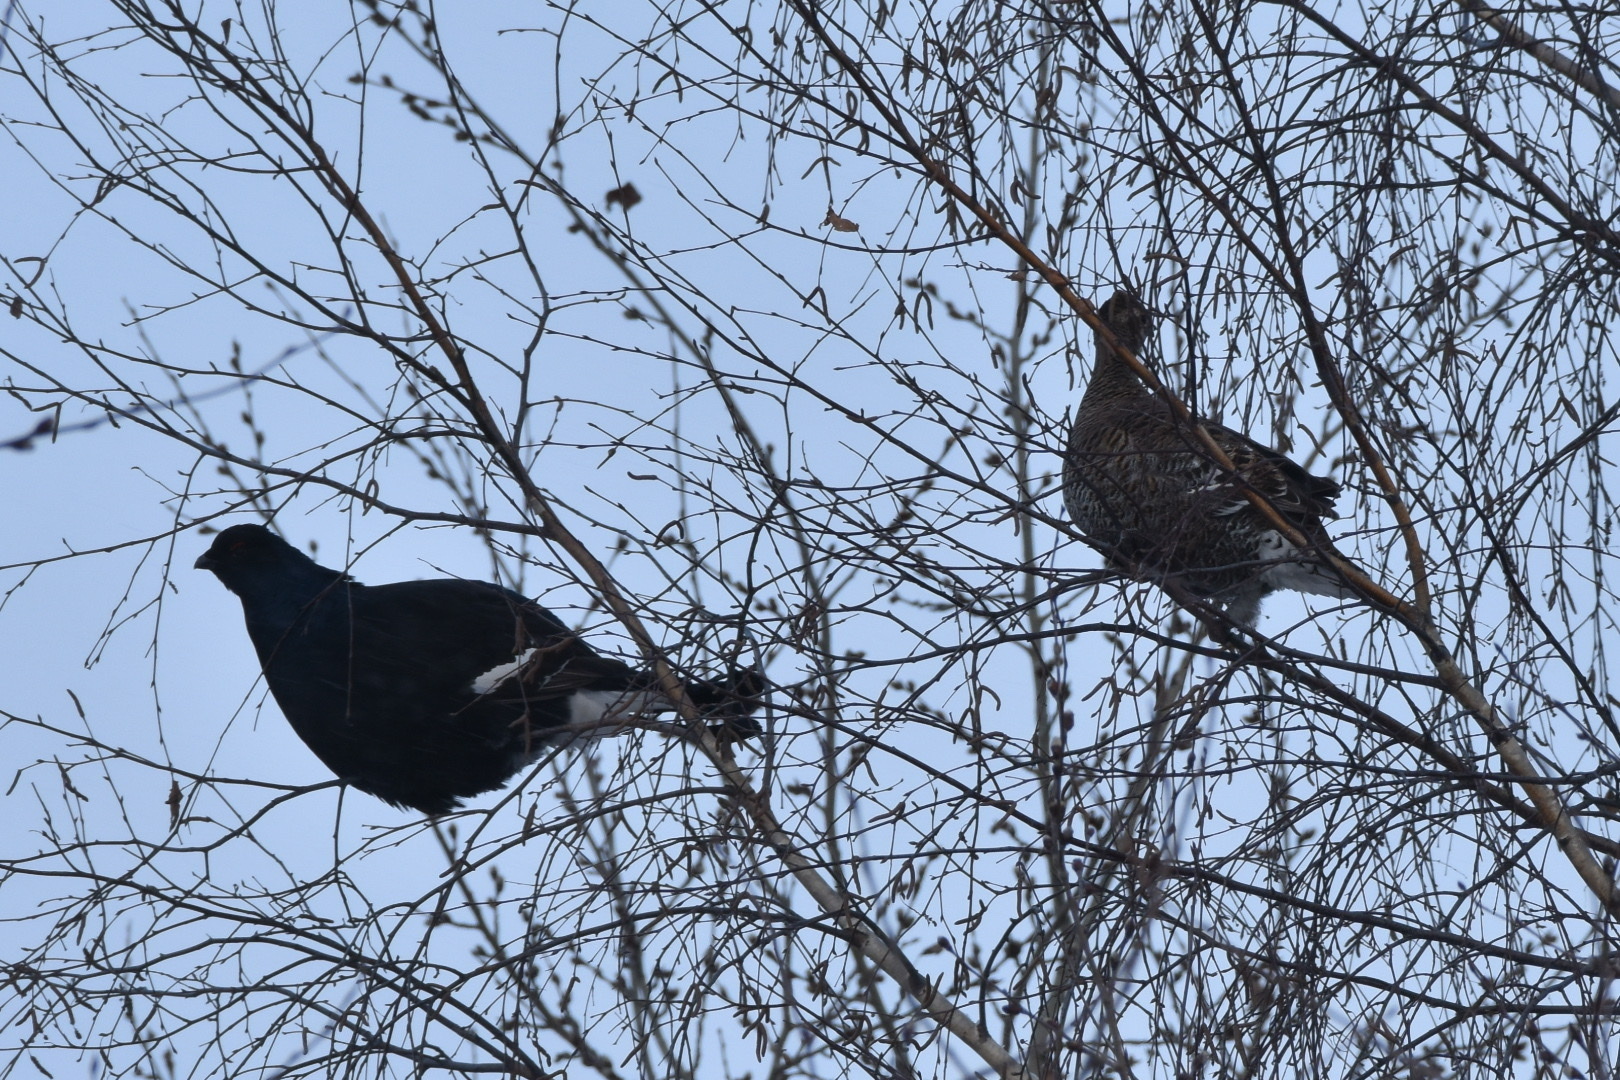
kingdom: Animalia
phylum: Chordata
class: Aves
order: Galliformes
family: Phasianidae
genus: Lyrurus
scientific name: Lyrurus tetrix
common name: Black grouse
